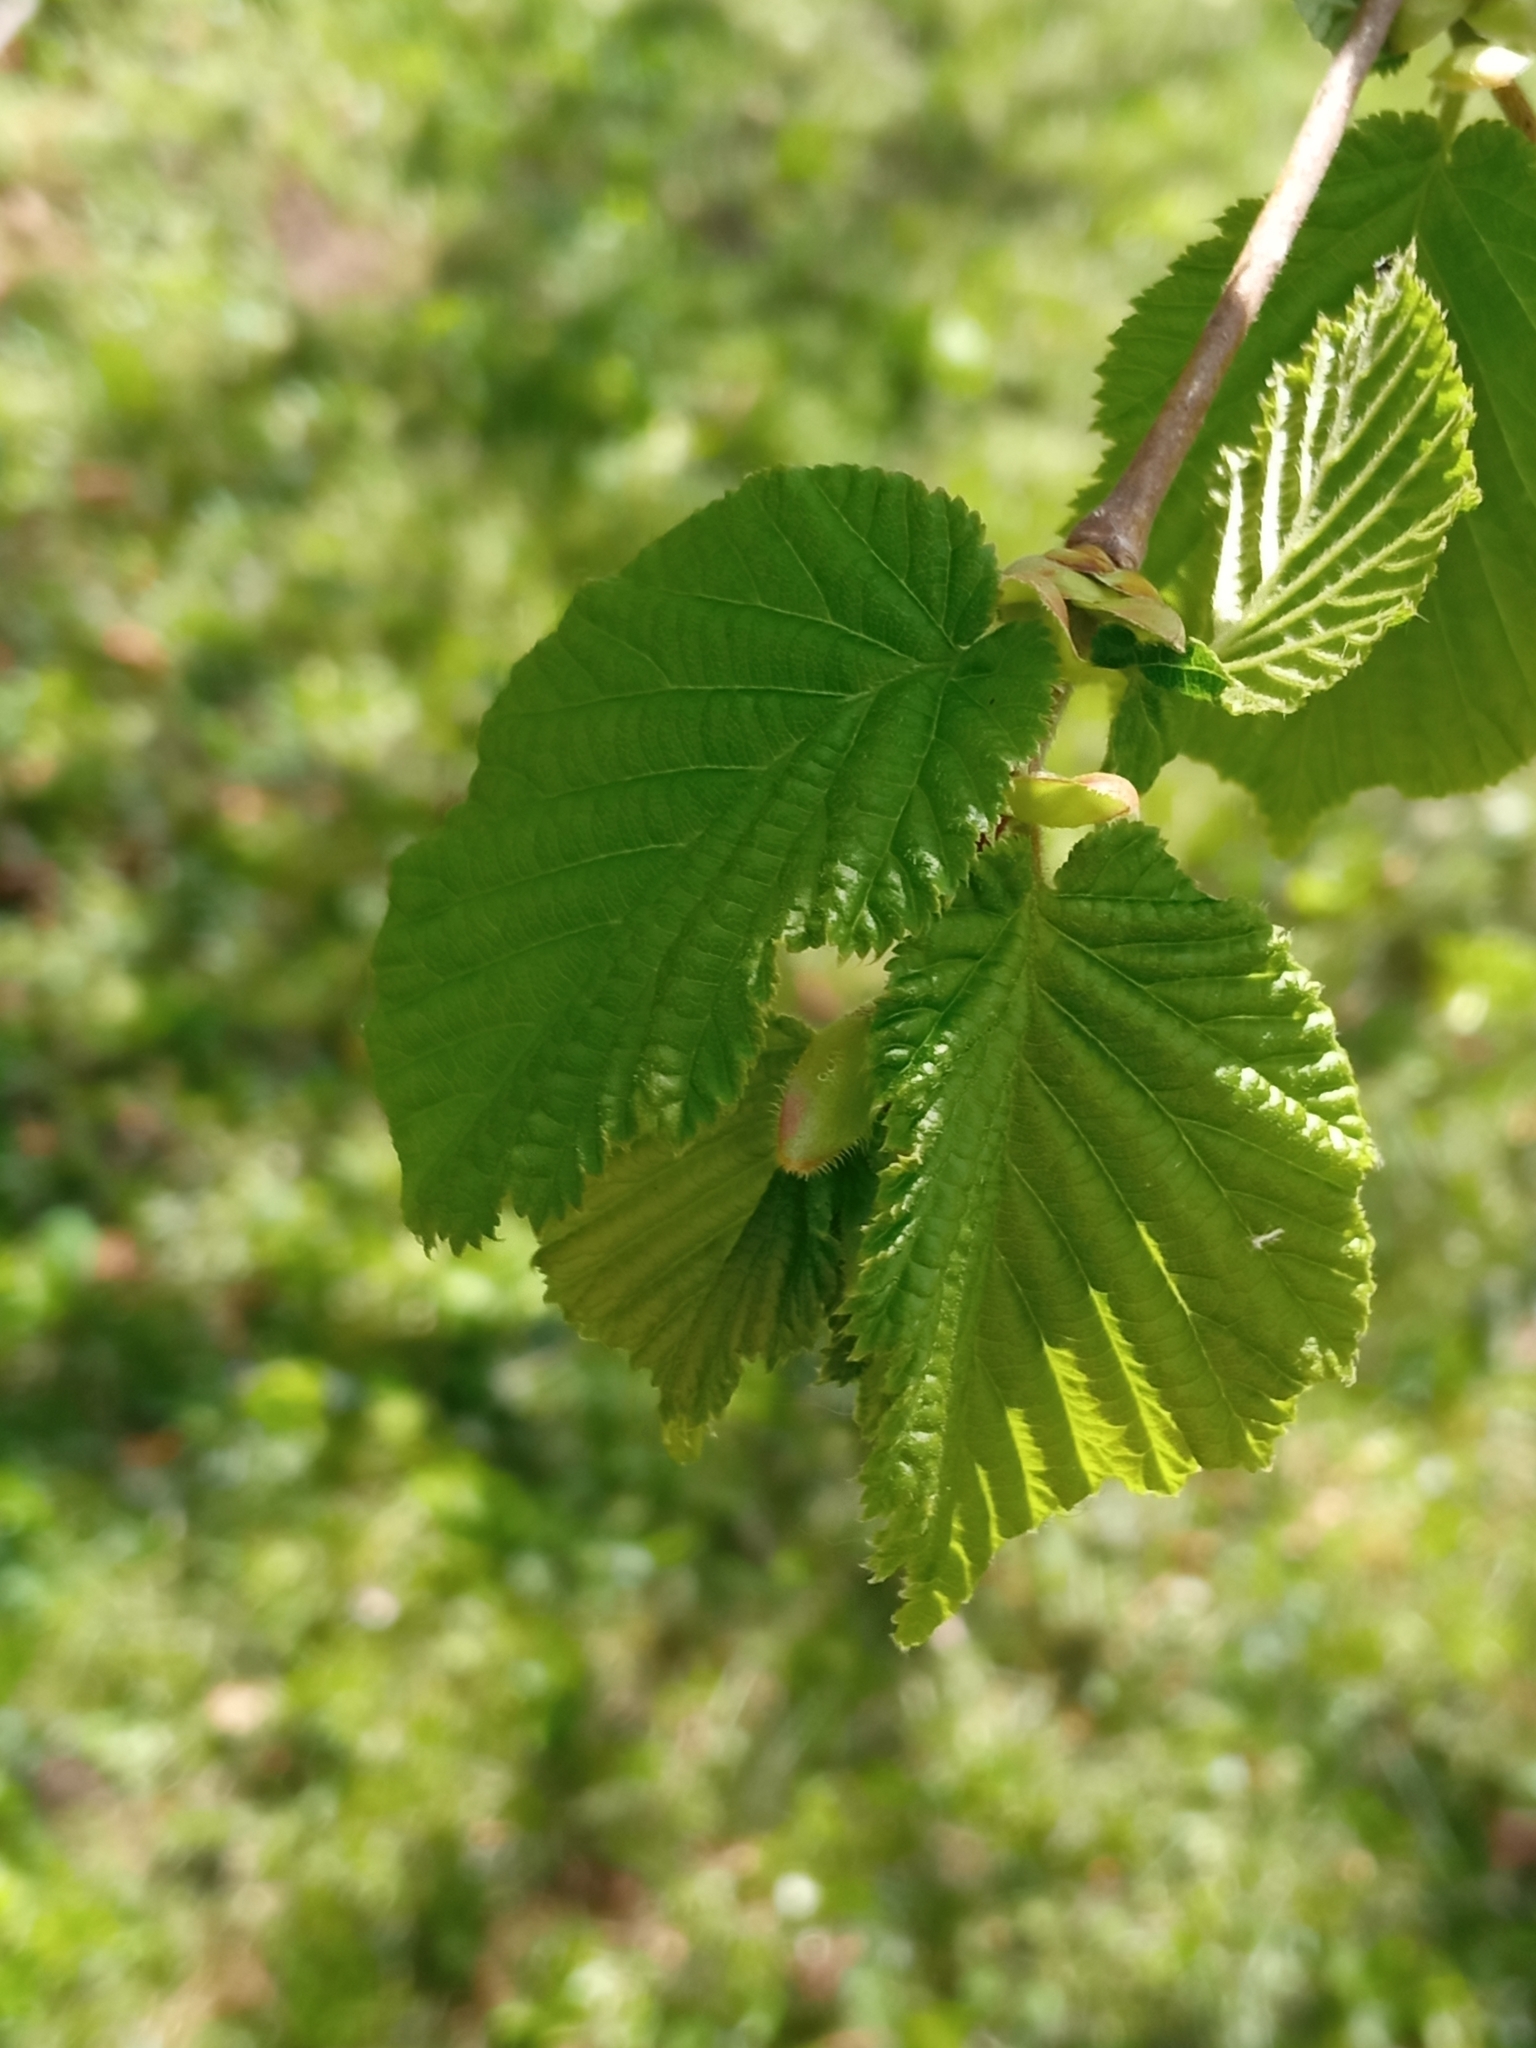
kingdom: Plantae
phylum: Tracheophyta
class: Magnoliopsida
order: Fagales
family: Betulaceae
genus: Corylus
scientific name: Corylus avellana
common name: European hazel
